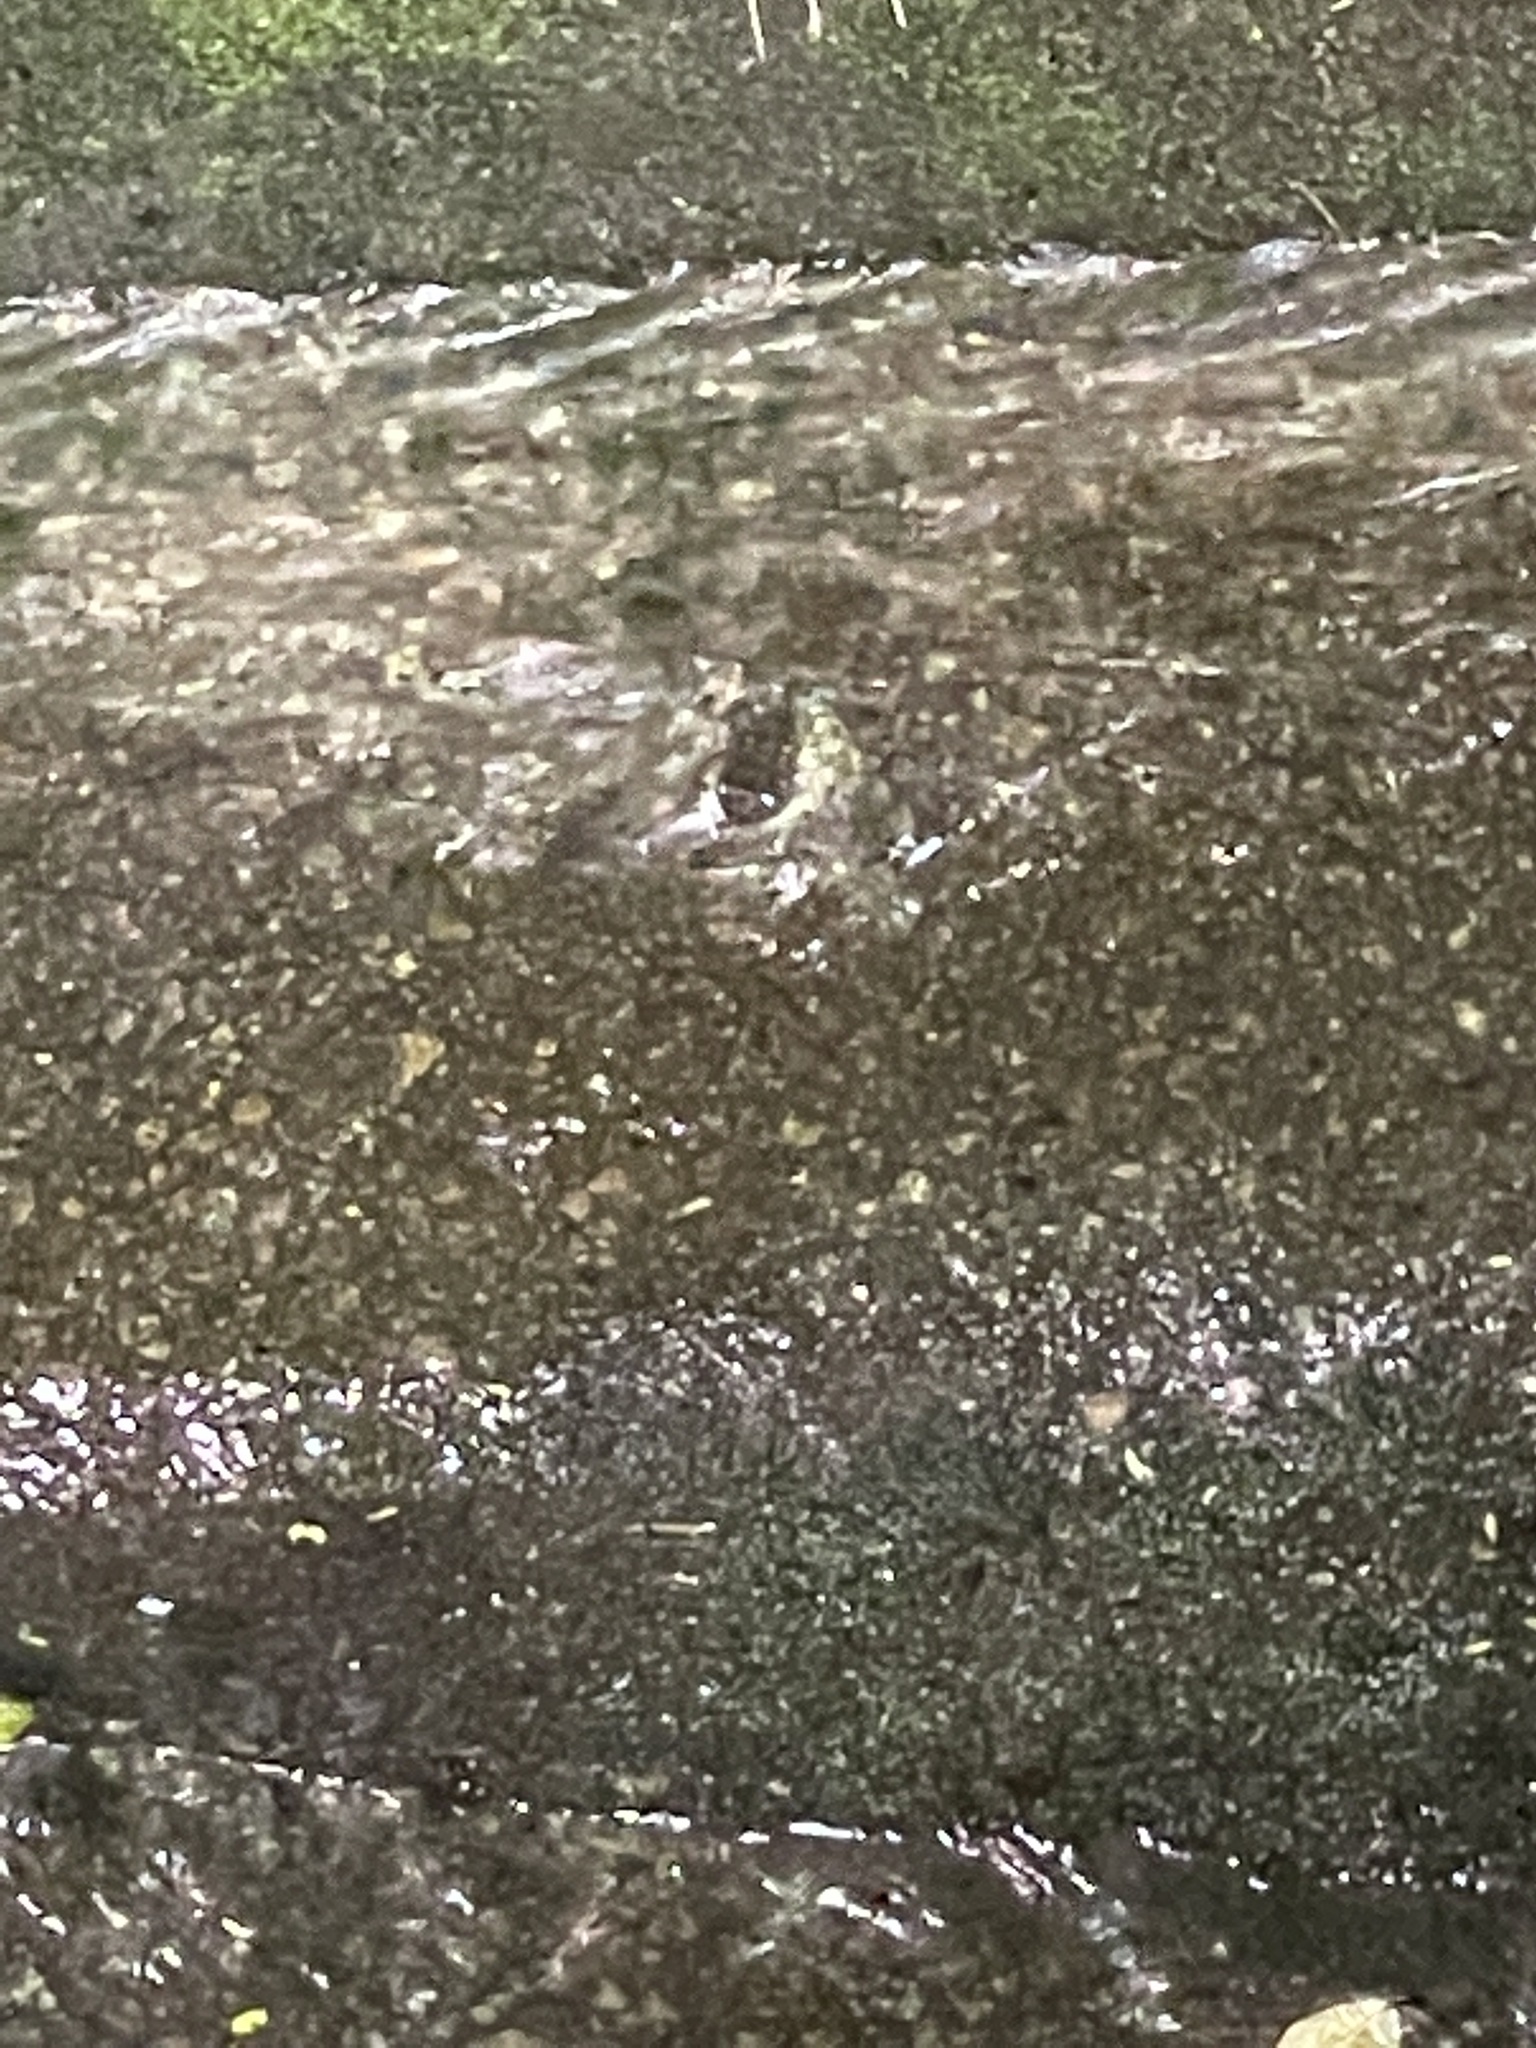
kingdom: Animalia
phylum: Chordata
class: Amphibia
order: Anura
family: Ranidae
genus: Amolops
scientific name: Amolops albispinus
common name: White-spined cascade frog
